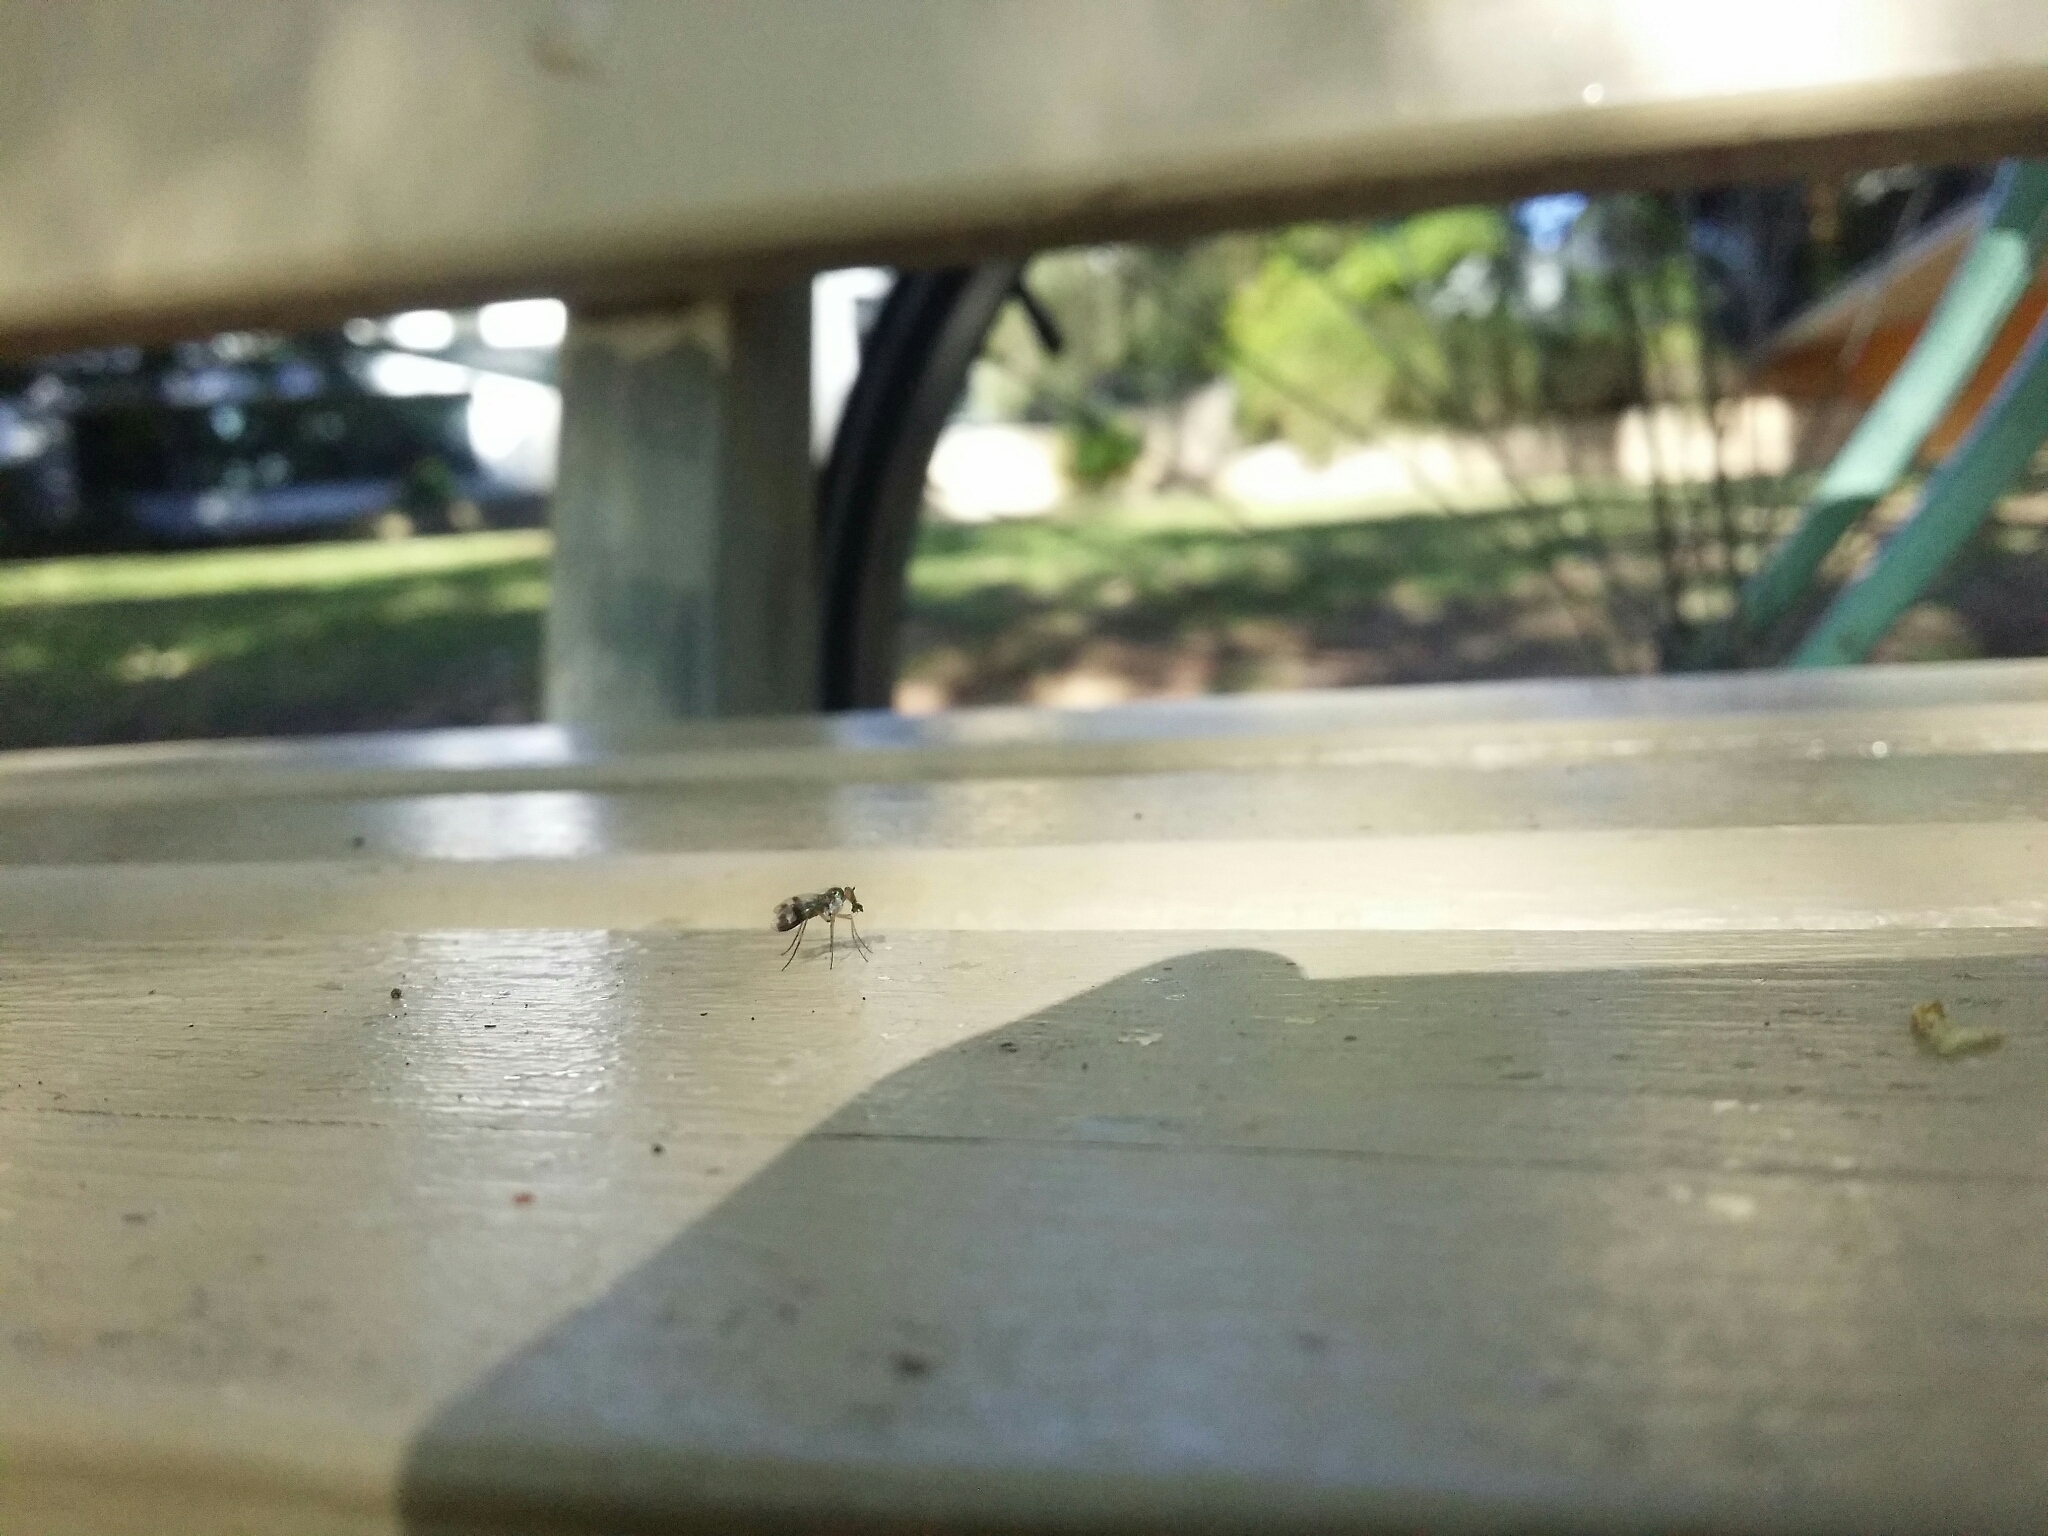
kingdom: Animalia
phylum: Arthropoda
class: Insecta
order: Diptera
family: Dolichopodidae
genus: Austrosciapus
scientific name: Austrosciapus connexus
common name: Green long-legged fly
